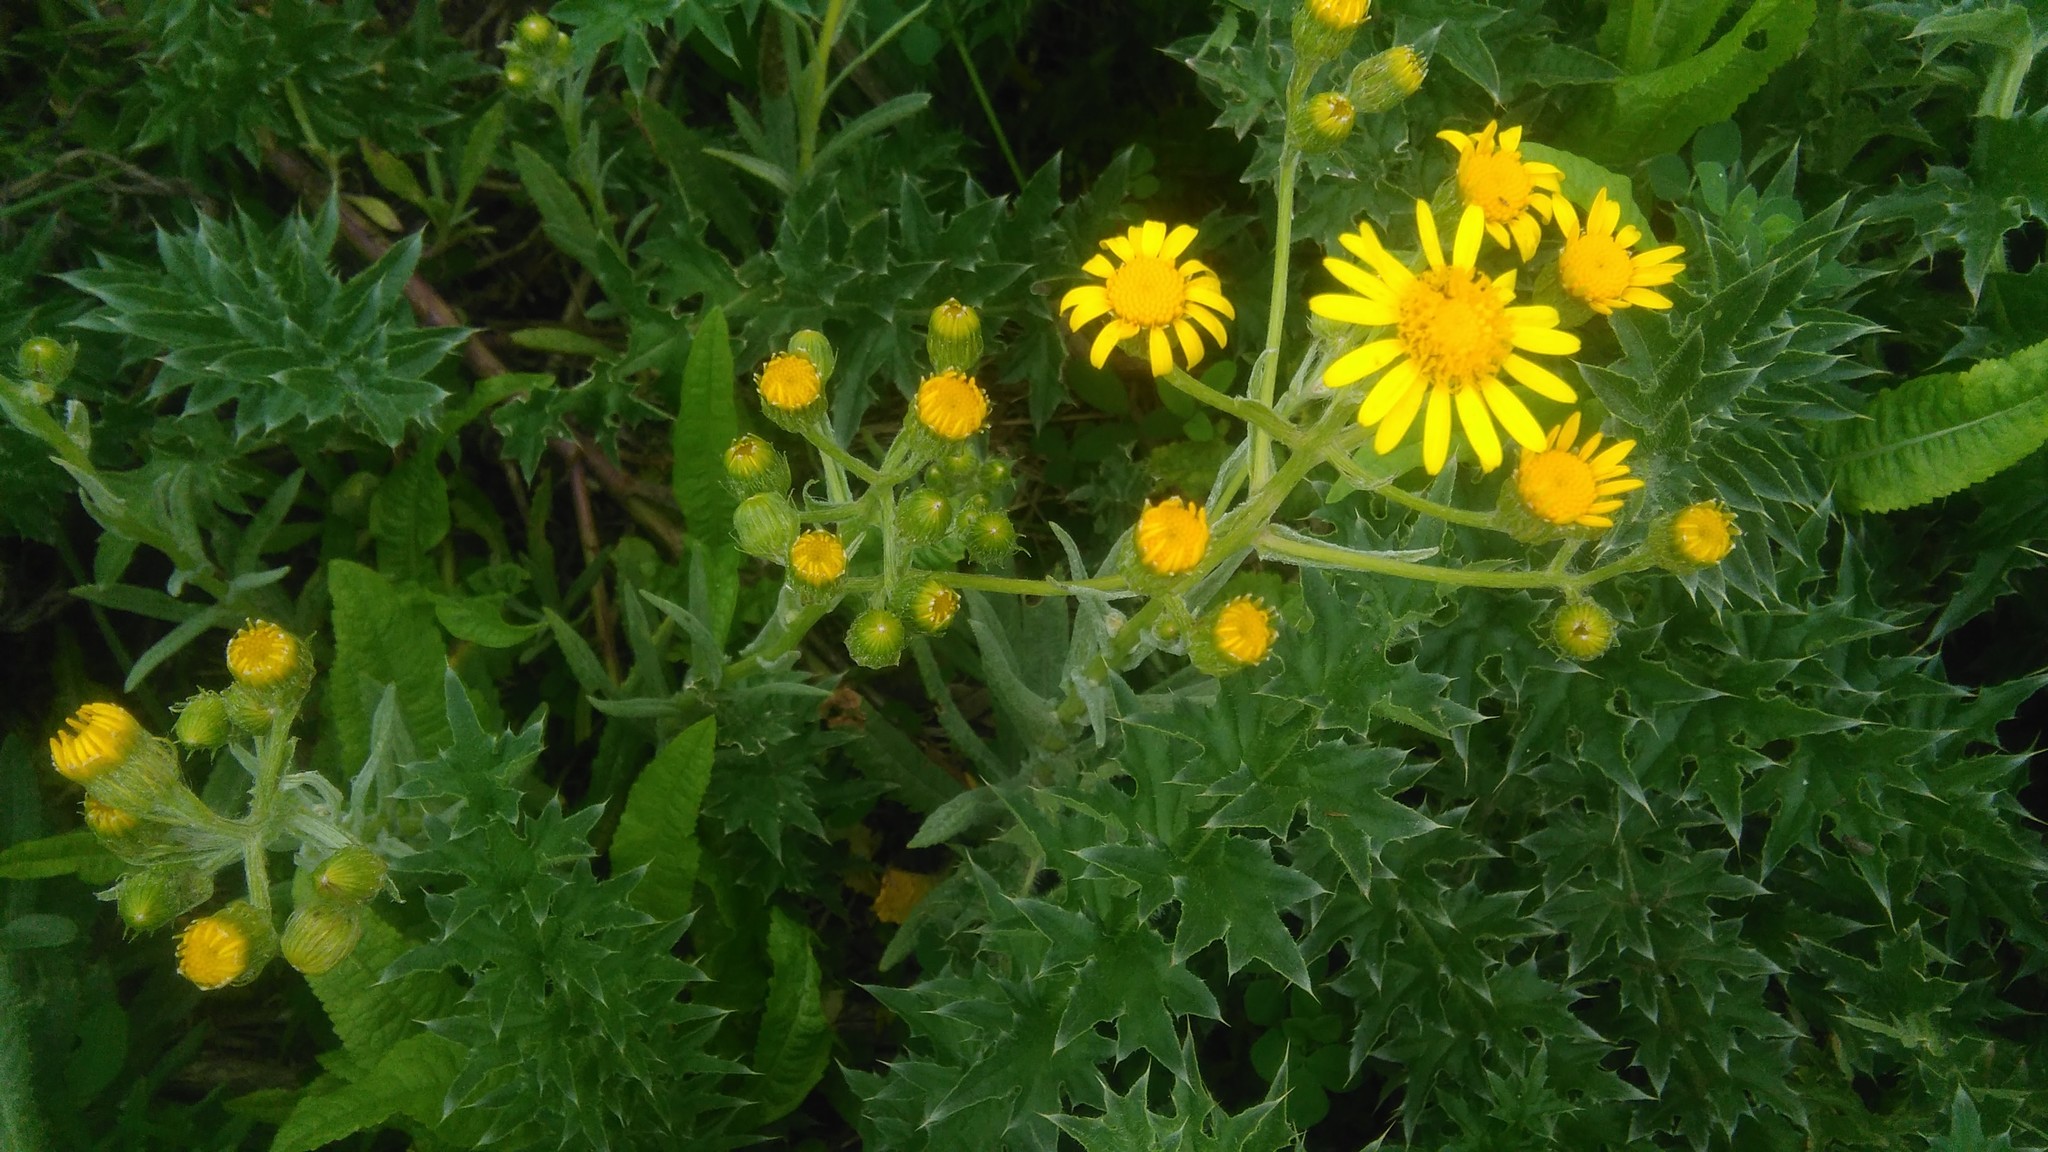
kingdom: Plantae
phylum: Tracheophyta
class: Magnoliopsida
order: Asterales
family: Asteraceae
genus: Senecio
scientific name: Senecio pterophorus
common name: Shoddy ragwort
